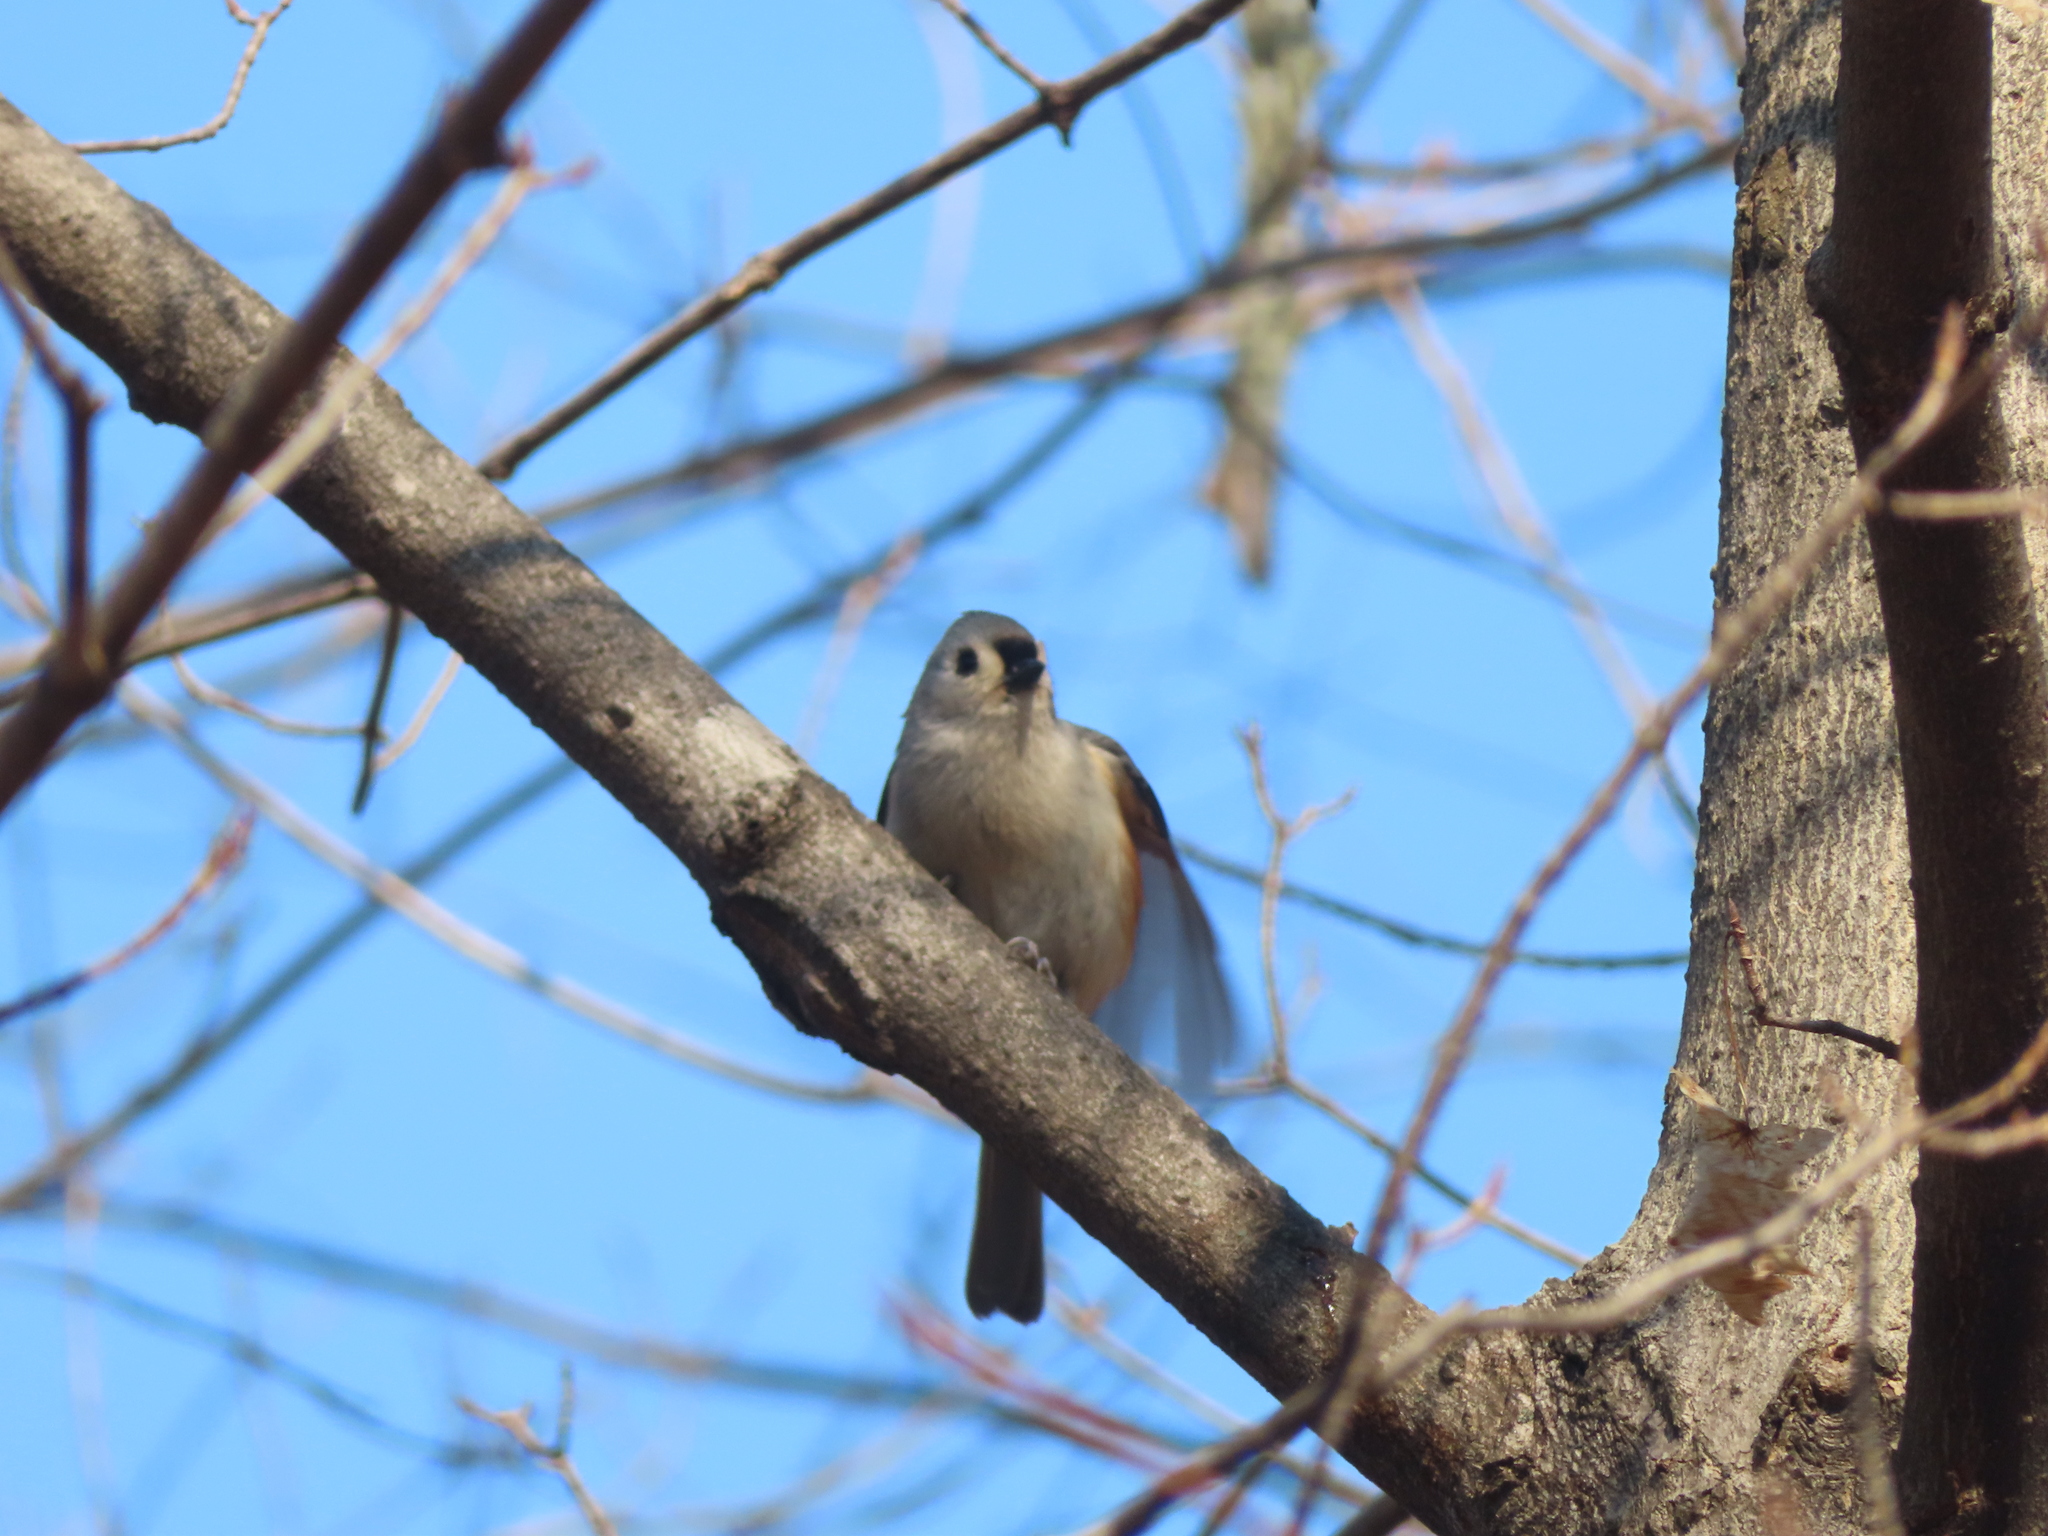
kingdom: Animalia
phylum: Chordata
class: Aves
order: Passeriformes
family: Paridae
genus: Baeolophus
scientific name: Baeolophus bicolor
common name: Tufted titmouse
